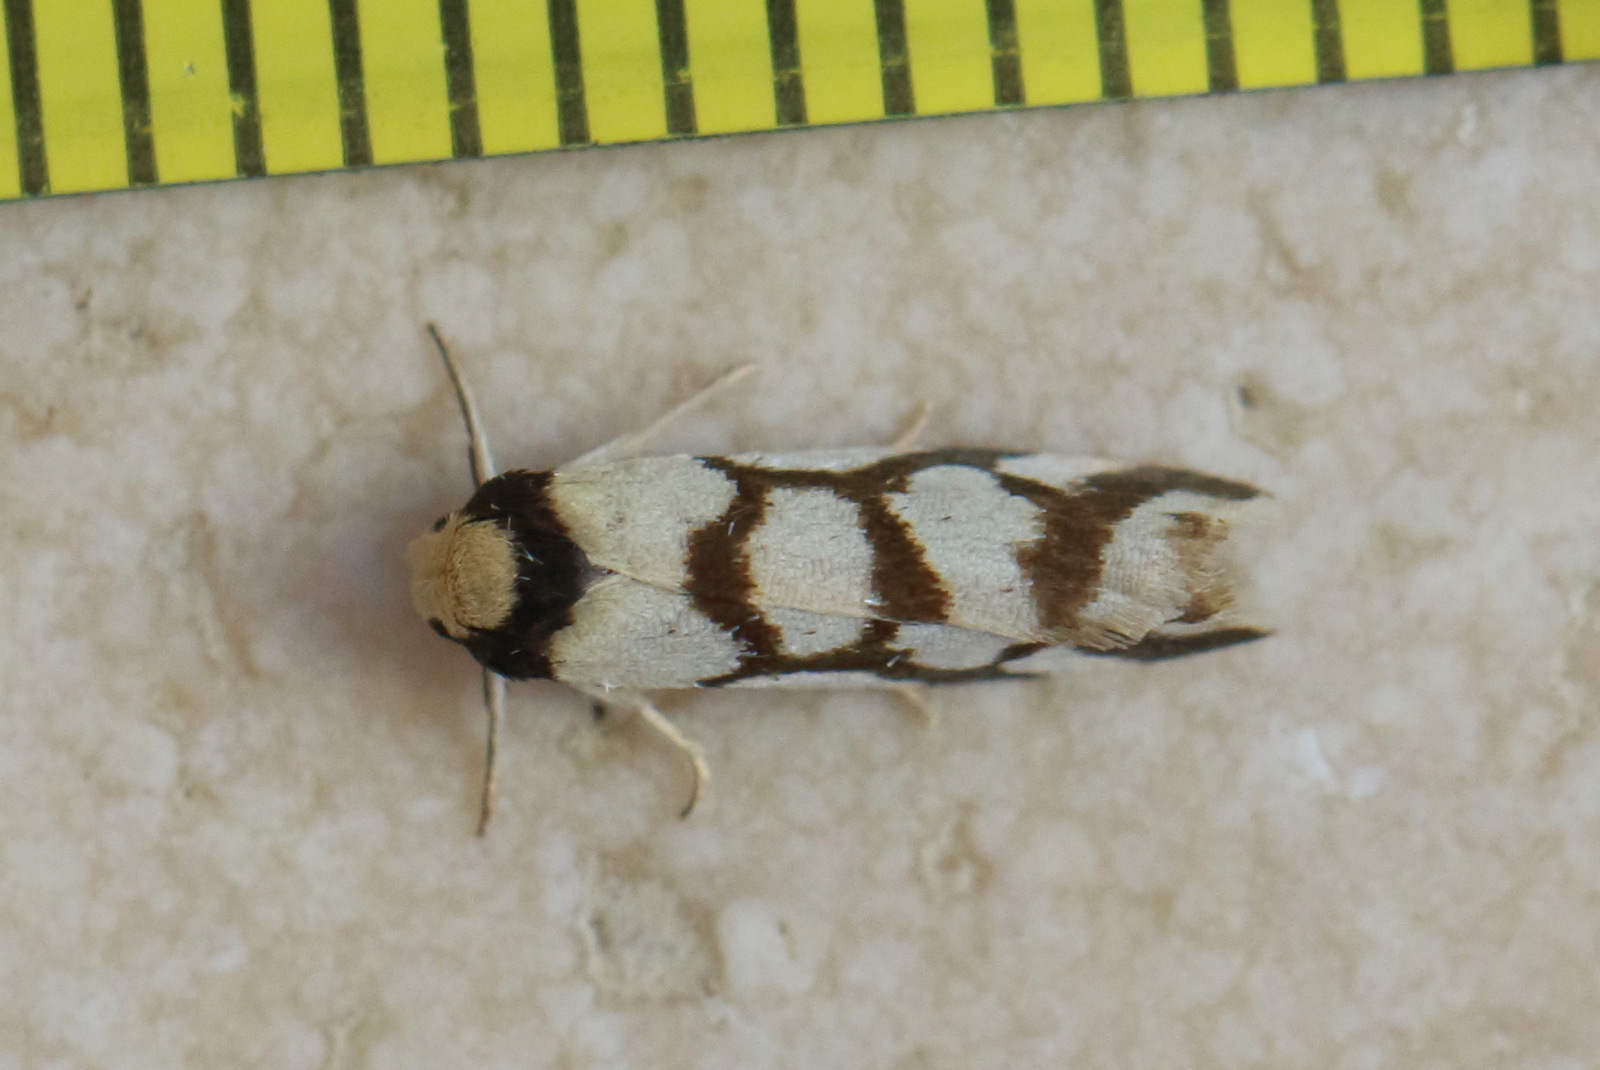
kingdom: Animalia
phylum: Arthropoda
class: Insecta
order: Lepidoptera
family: Erebidae
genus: Scaptesyle
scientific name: Scaptesyle dichotoma
